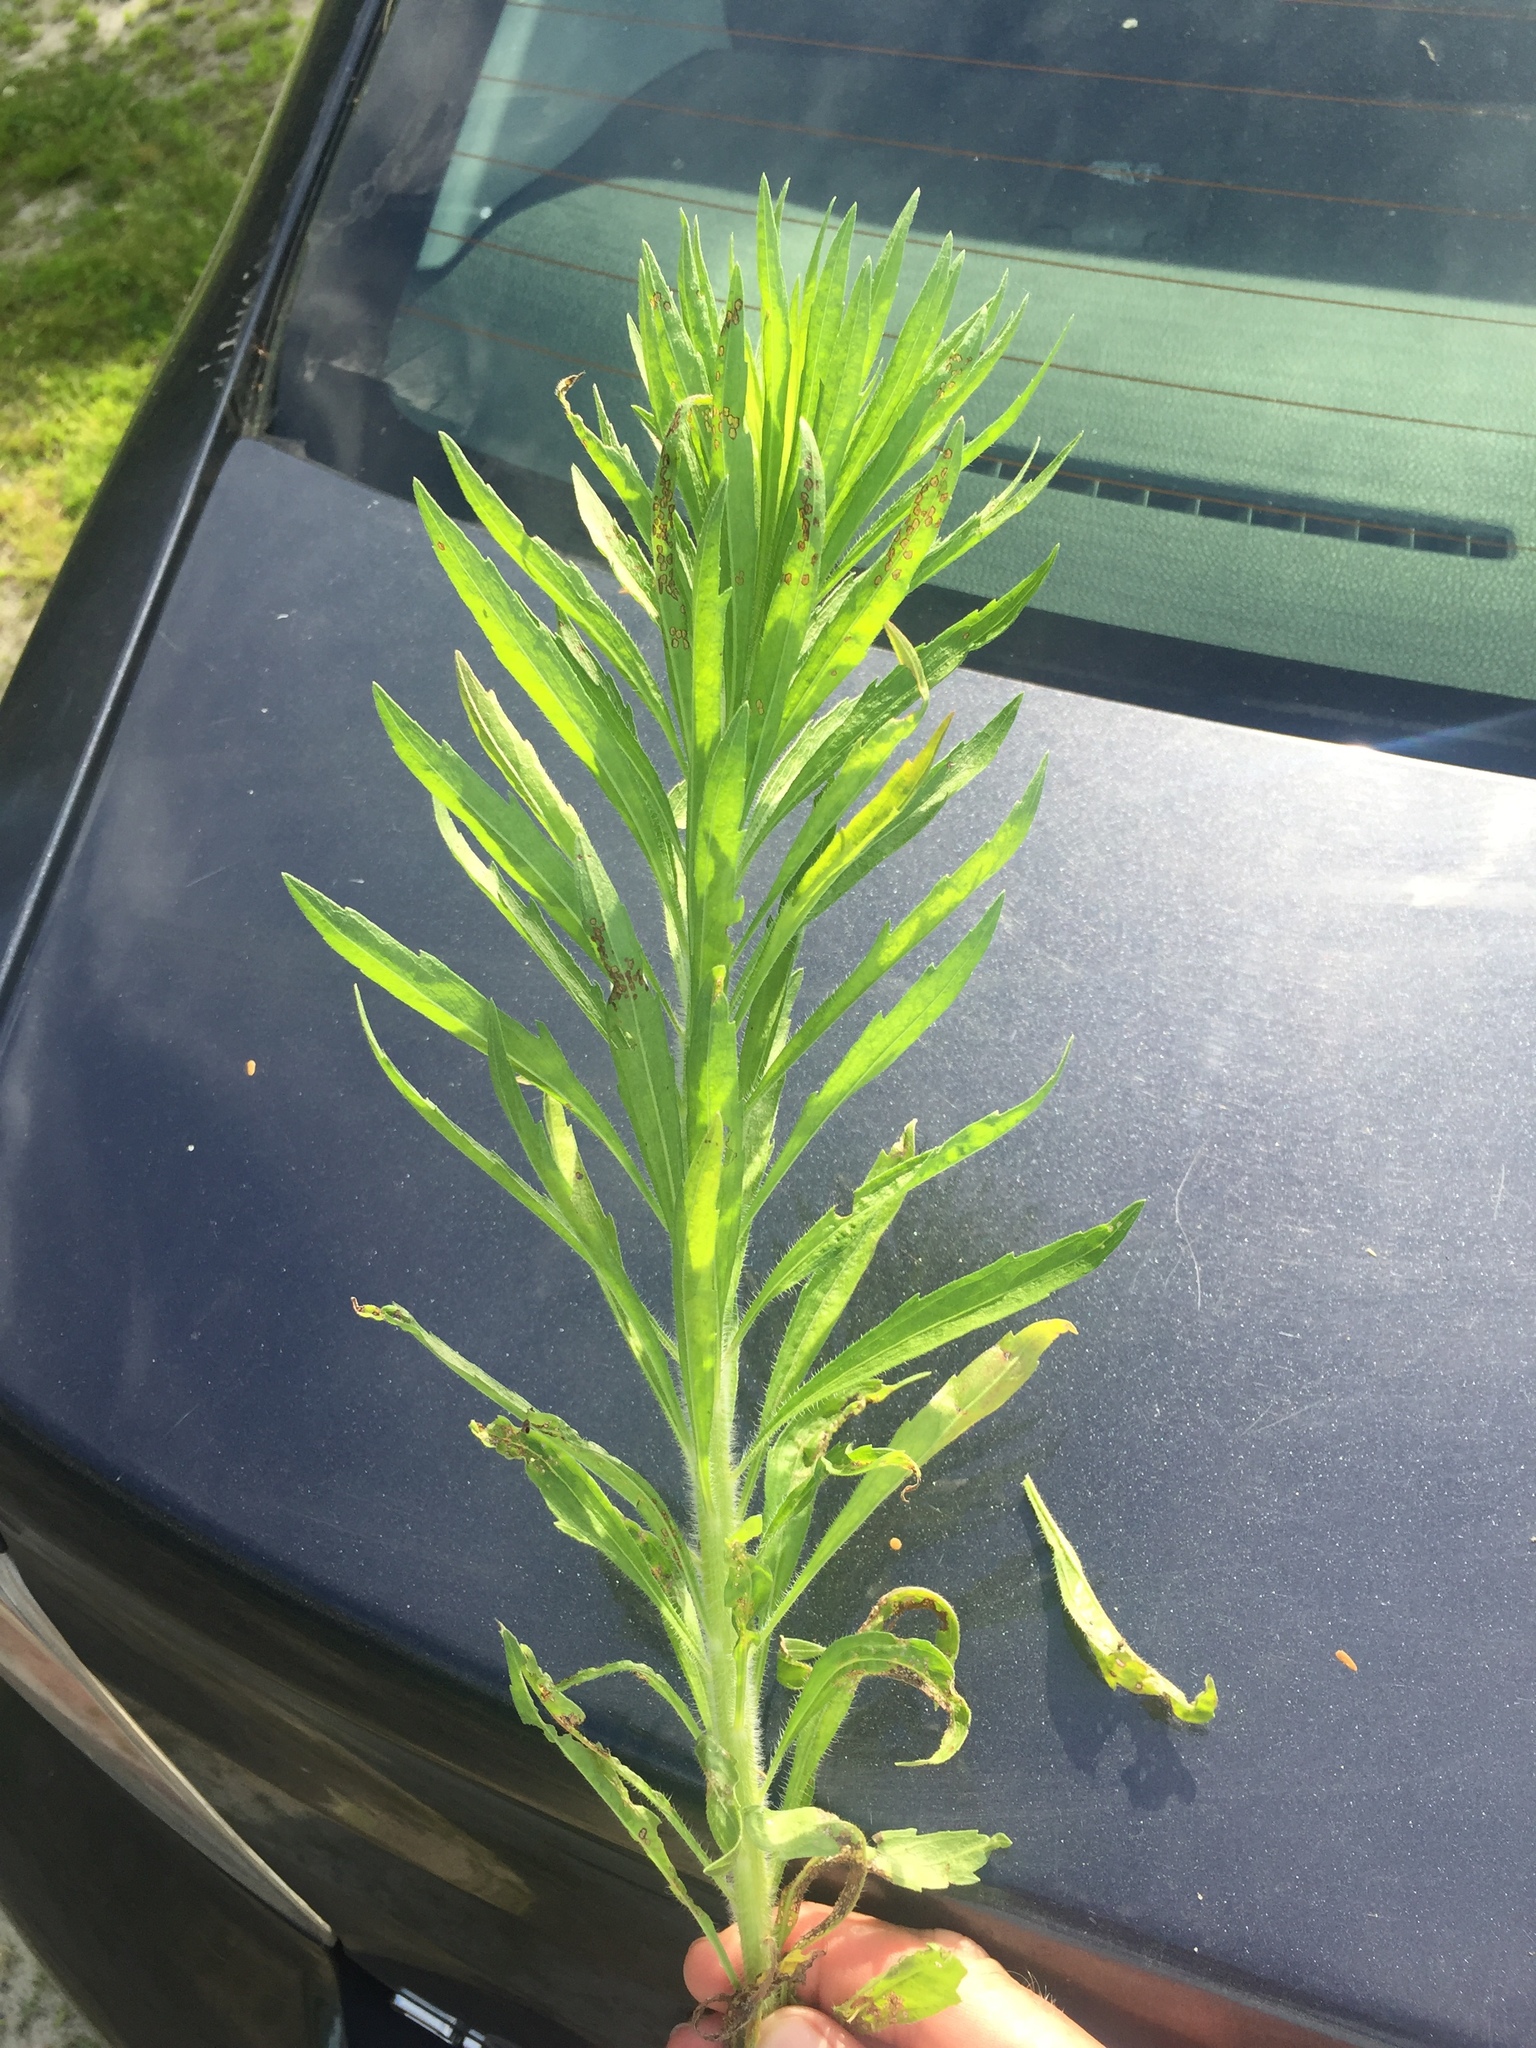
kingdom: Plantae
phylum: Tracheophyta
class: Magnoliopsida
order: Asterales
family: Asteraceae
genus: Erigeron
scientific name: Erigeron canadensis
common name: Canadian fleabane
